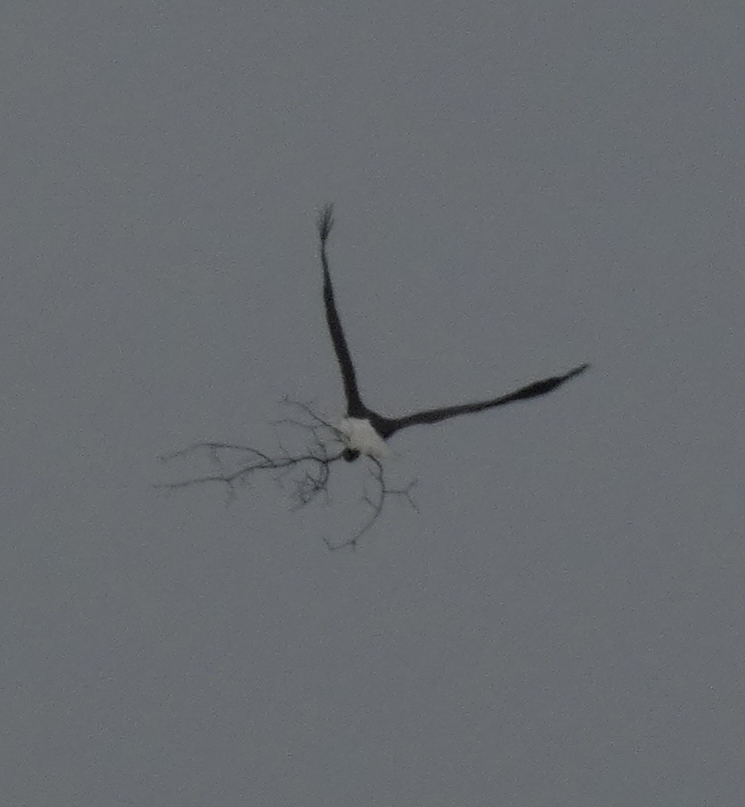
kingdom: Animalia
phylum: Chordata
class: Aves
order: Accipitriformes
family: Accipitridae
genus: Haliaeetus
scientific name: Haliaeetus leucocephalus
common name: Bald eagle
